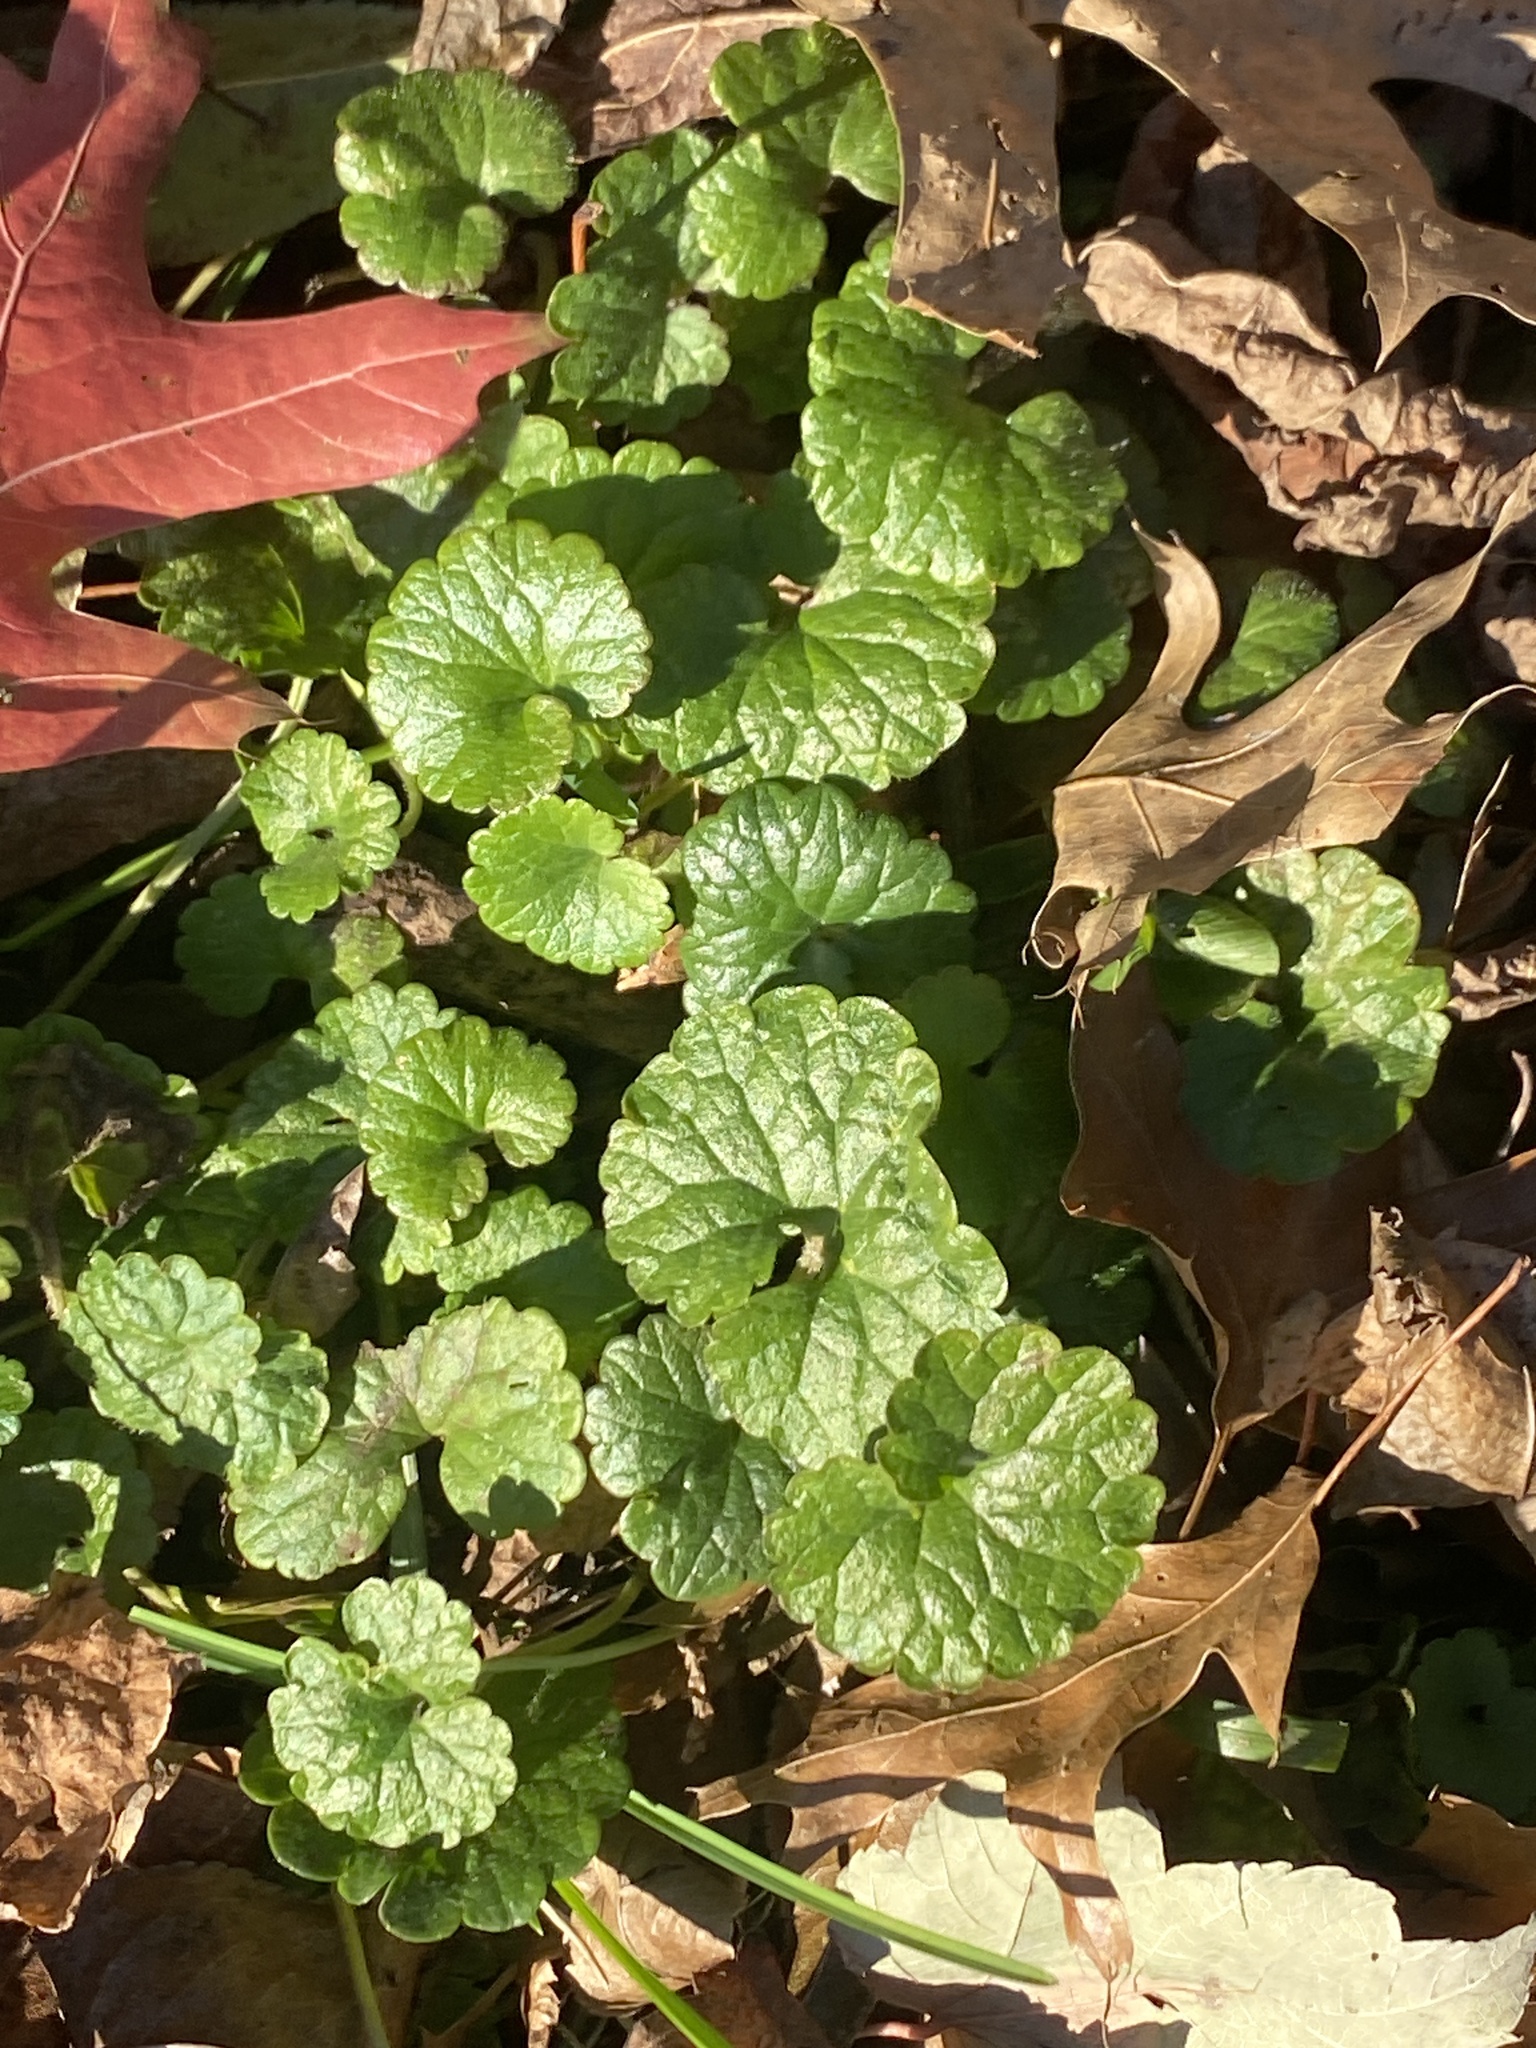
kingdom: Plantae
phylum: Tracheophyta
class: Magnoliopsida
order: Lamiales
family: Lamiaceae
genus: Glechoma
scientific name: Glechoma hederacea
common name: Ground ivy
